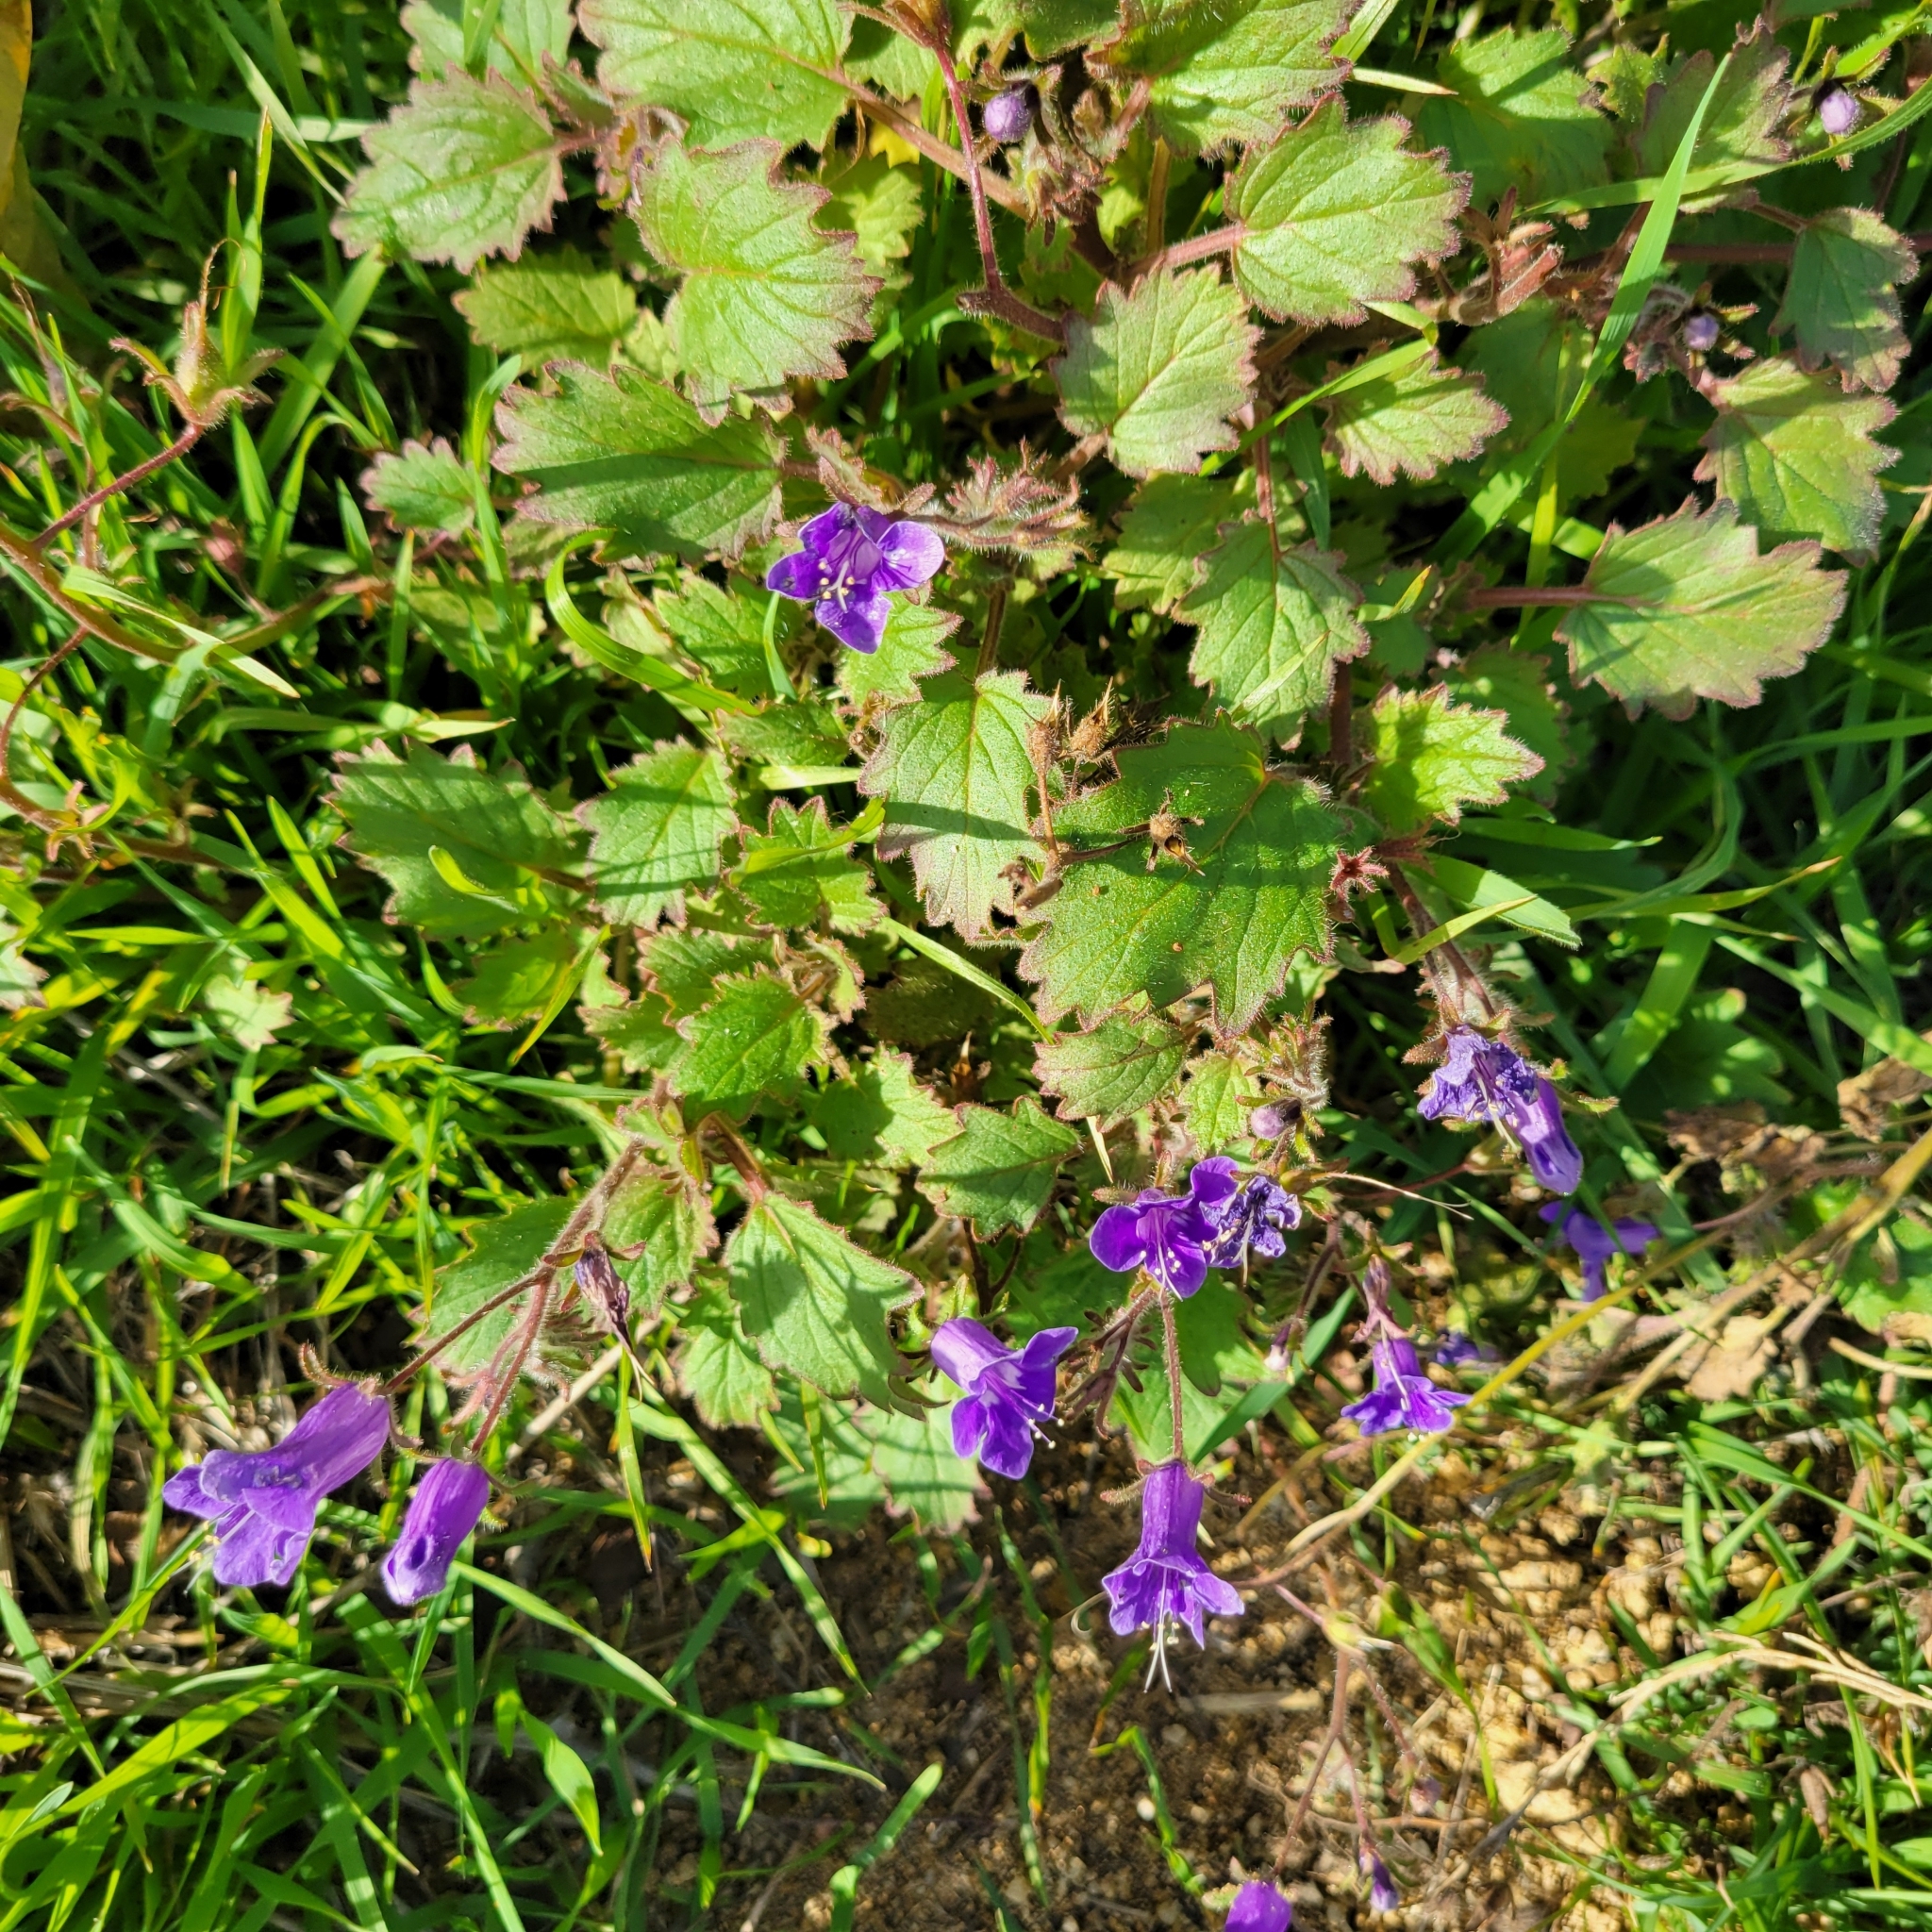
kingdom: Plantae
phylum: Tracheophyta
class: Magnoliopsida
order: Boraginales
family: Hydrophyllaceae
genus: Phacelia
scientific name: Phacelia minor
